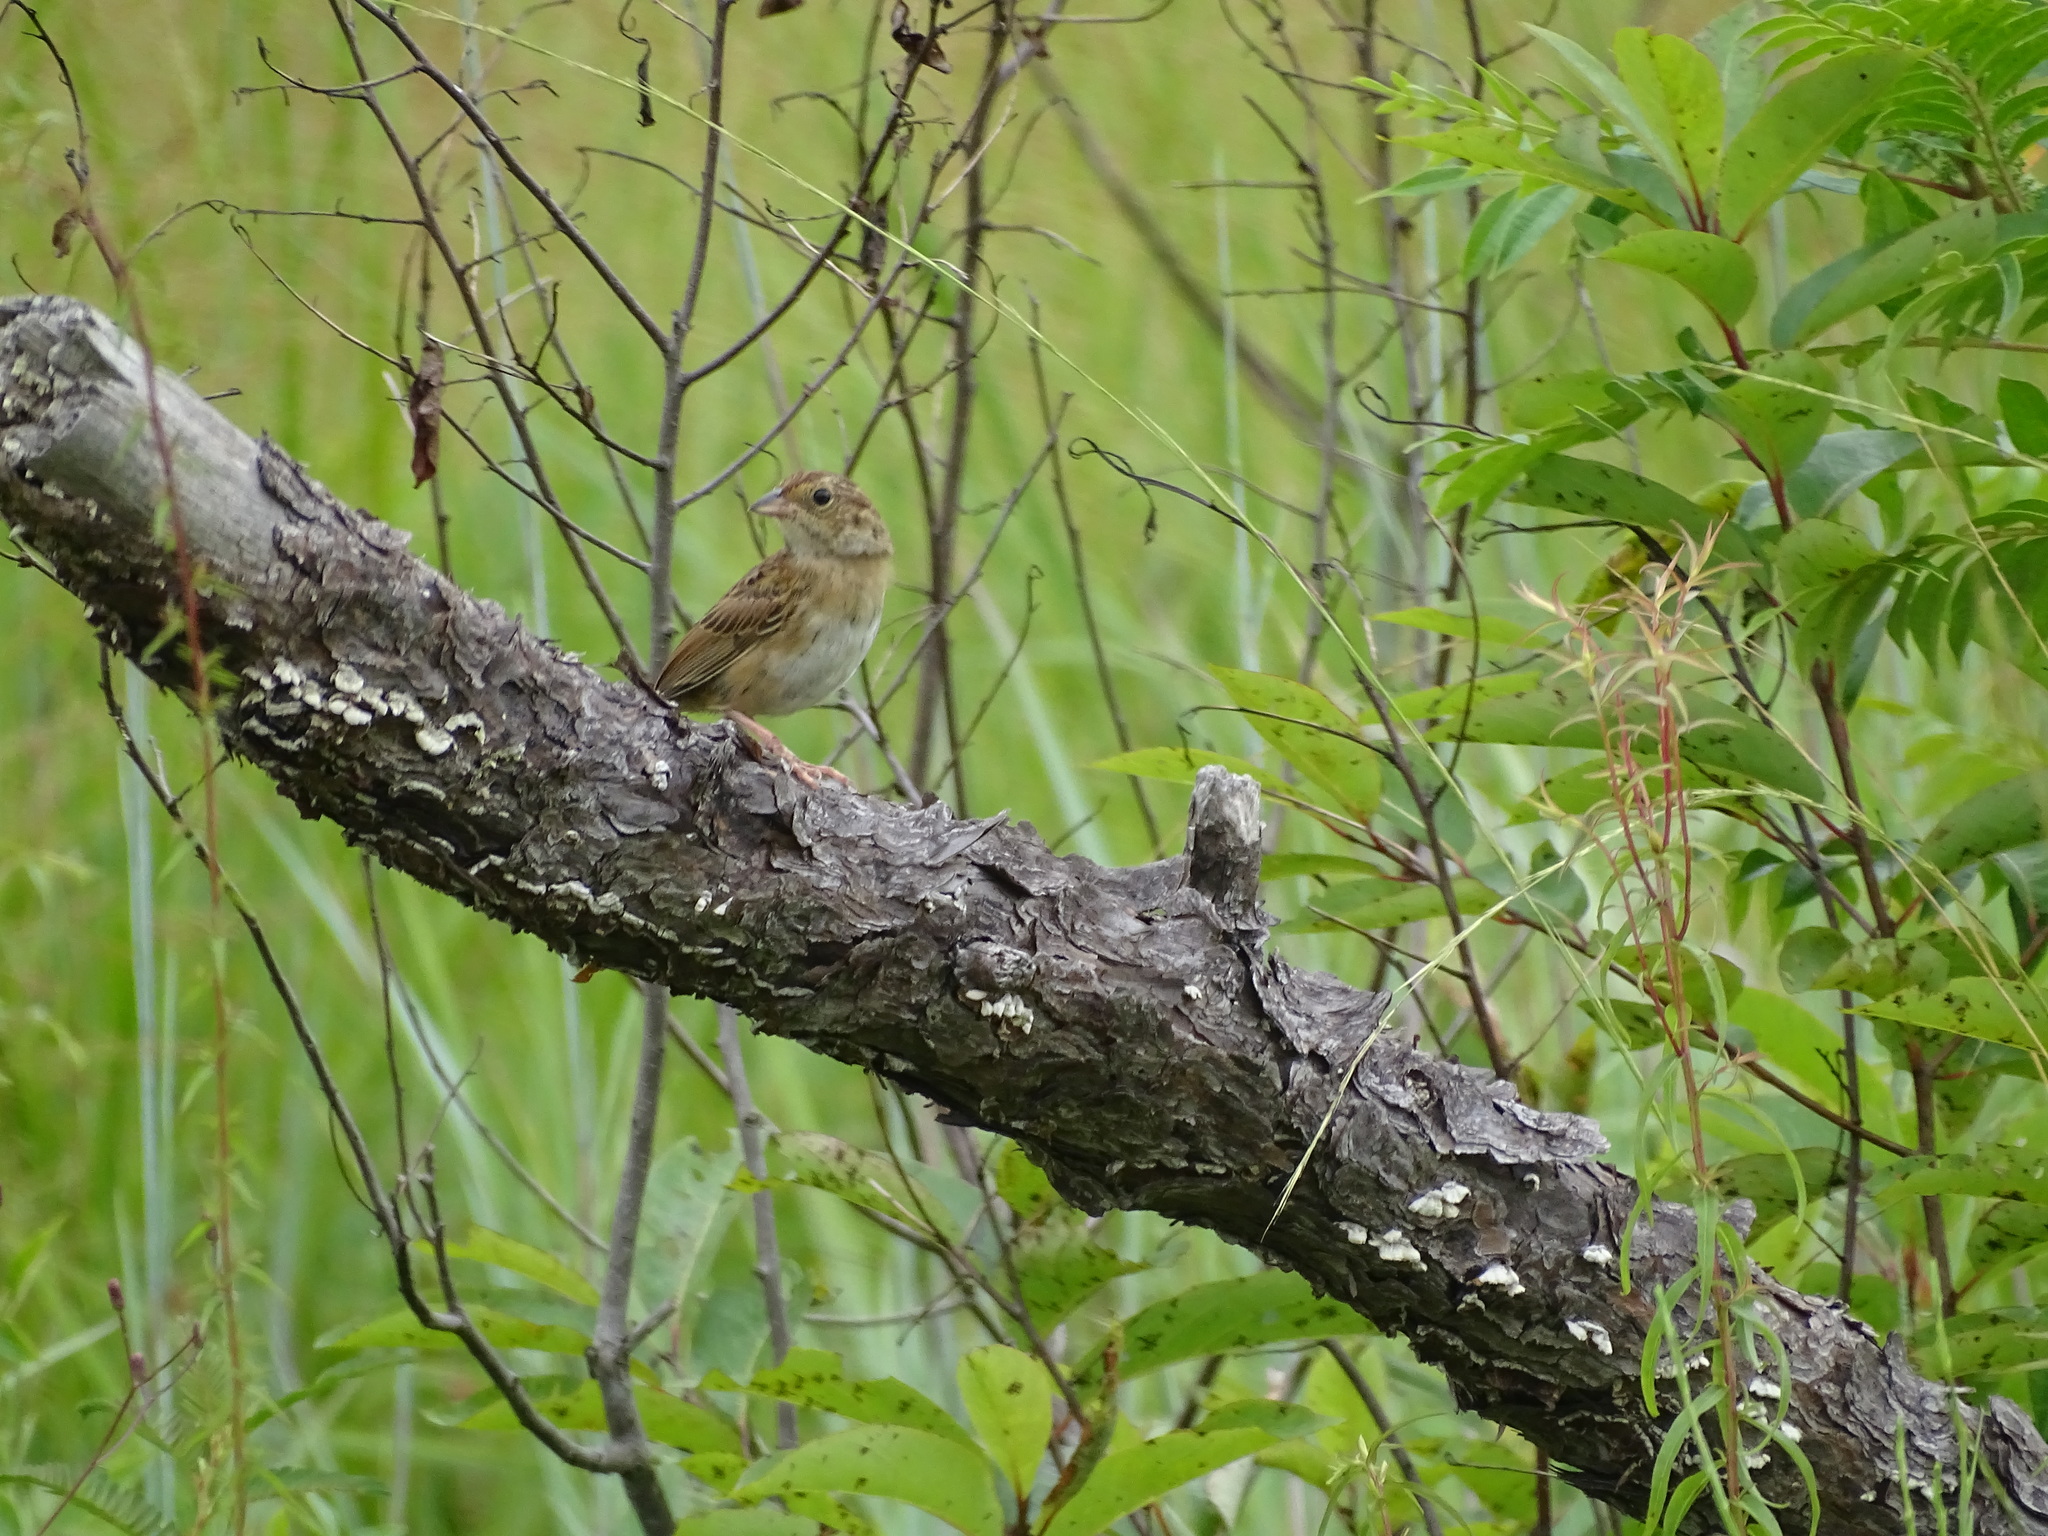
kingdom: Animalia
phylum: Chordata
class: Aves
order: Passeriformes
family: Passerellidae
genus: Peucaea
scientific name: Peucaea aestivalis
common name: Bachman's sparrow
